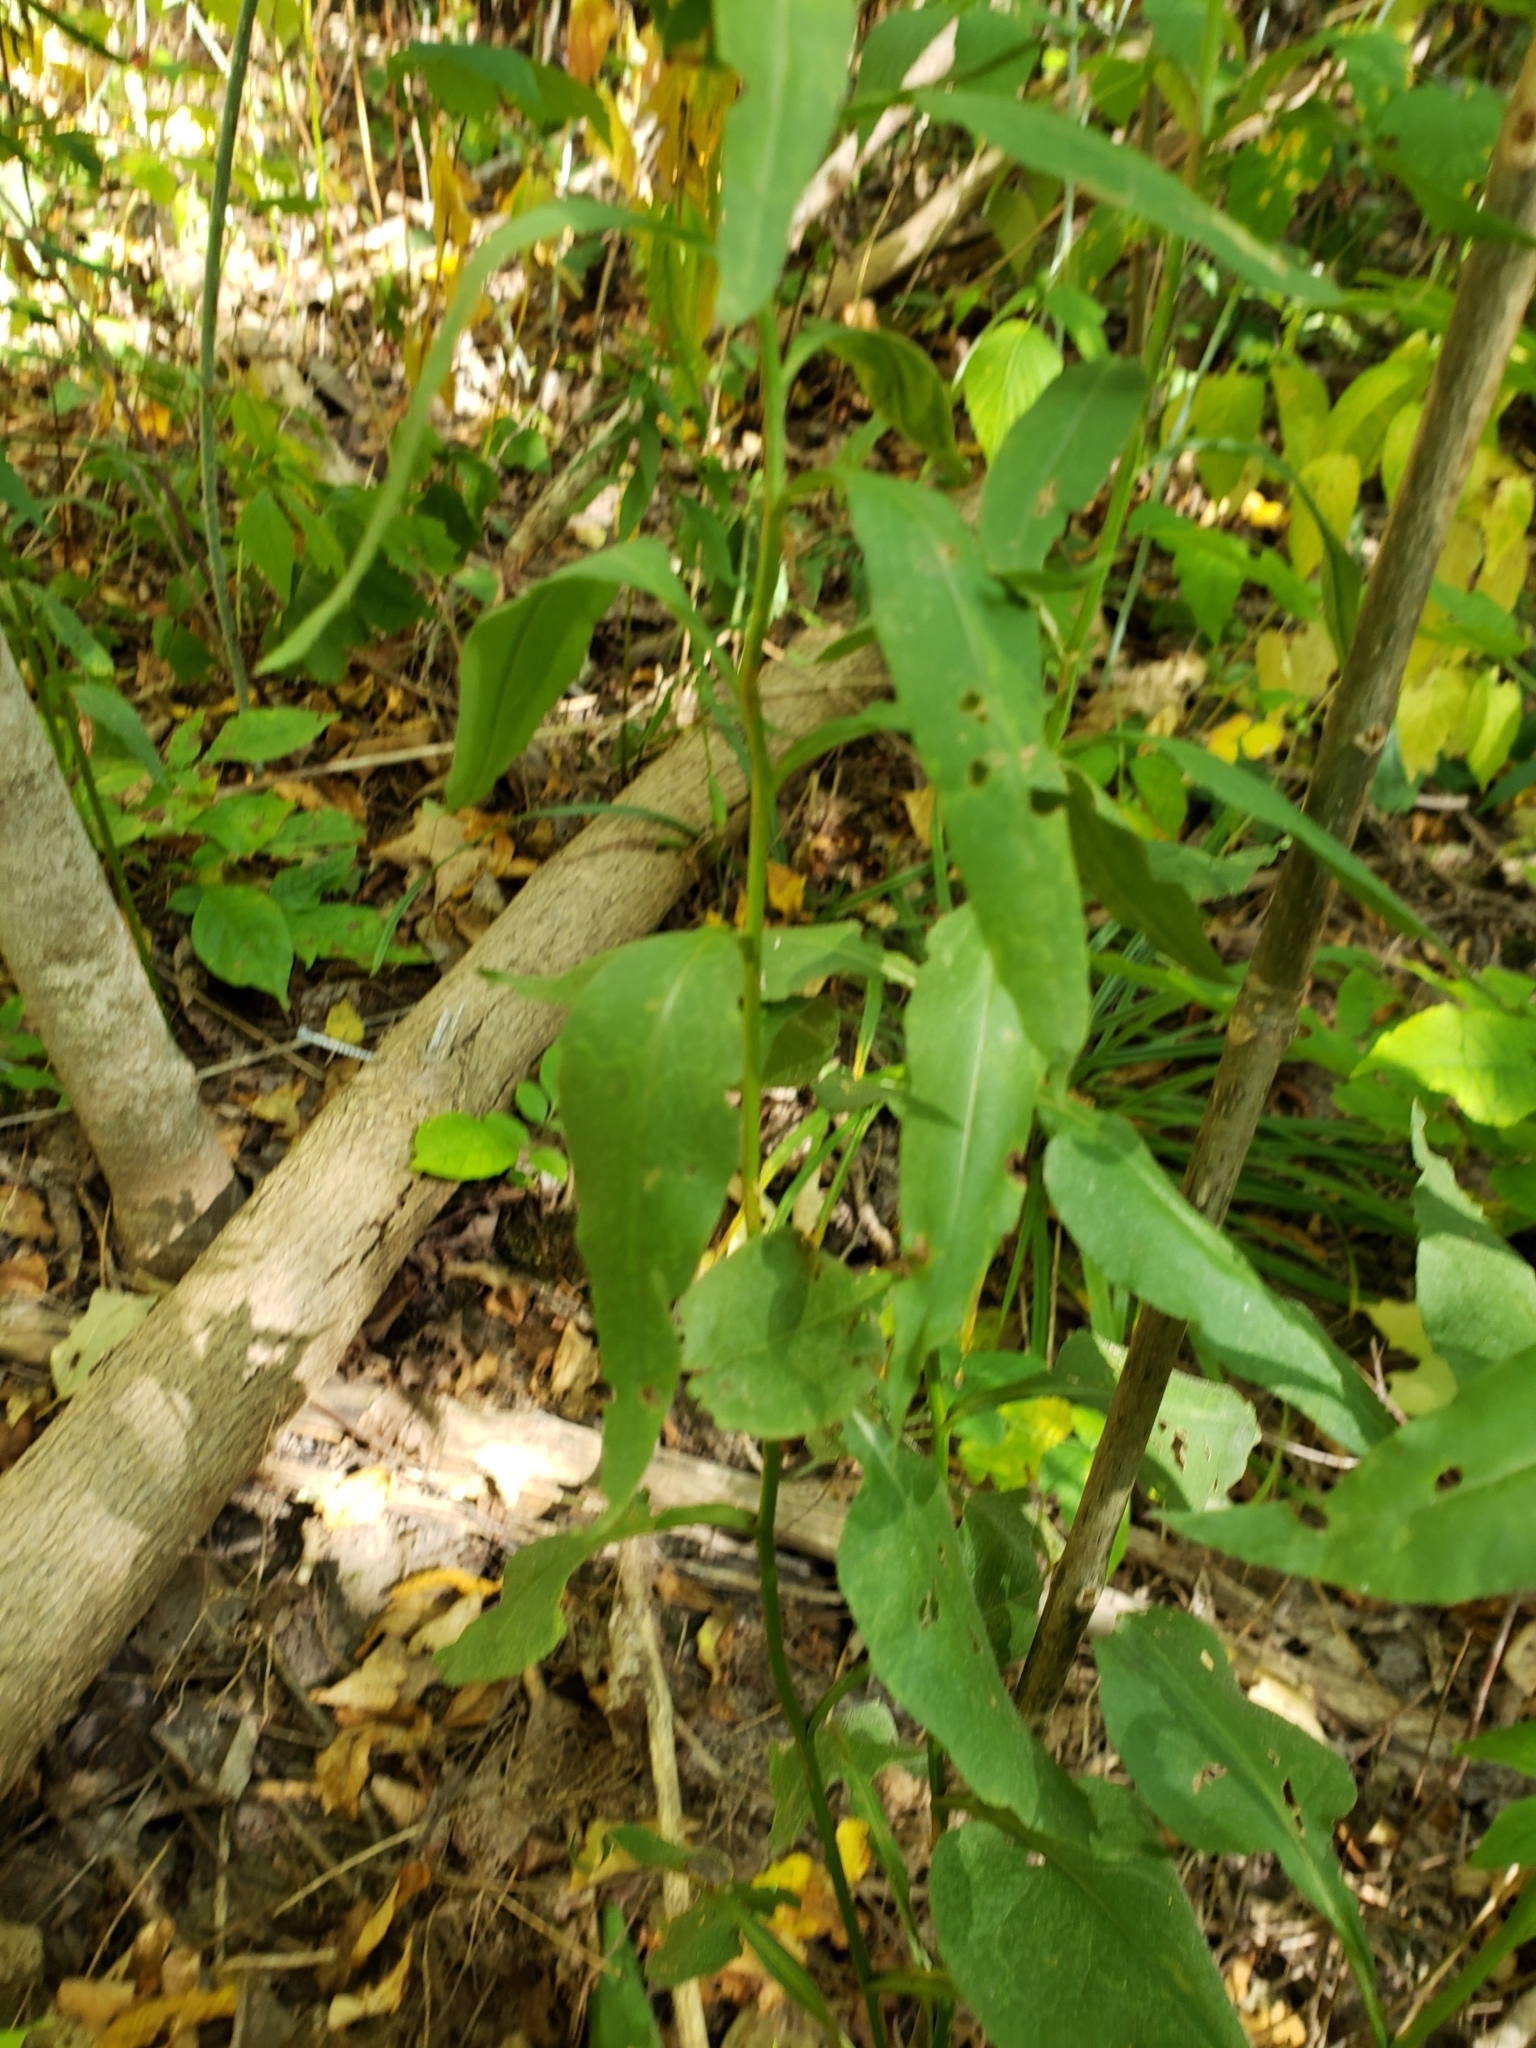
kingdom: Plantae
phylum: Tracheophyta
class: Magnoliopsida
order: Asterales
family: Asteraceae
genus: Symphyotrichum
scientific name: Symphyotrichum urophyllum
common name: Arrow-leaved aster
